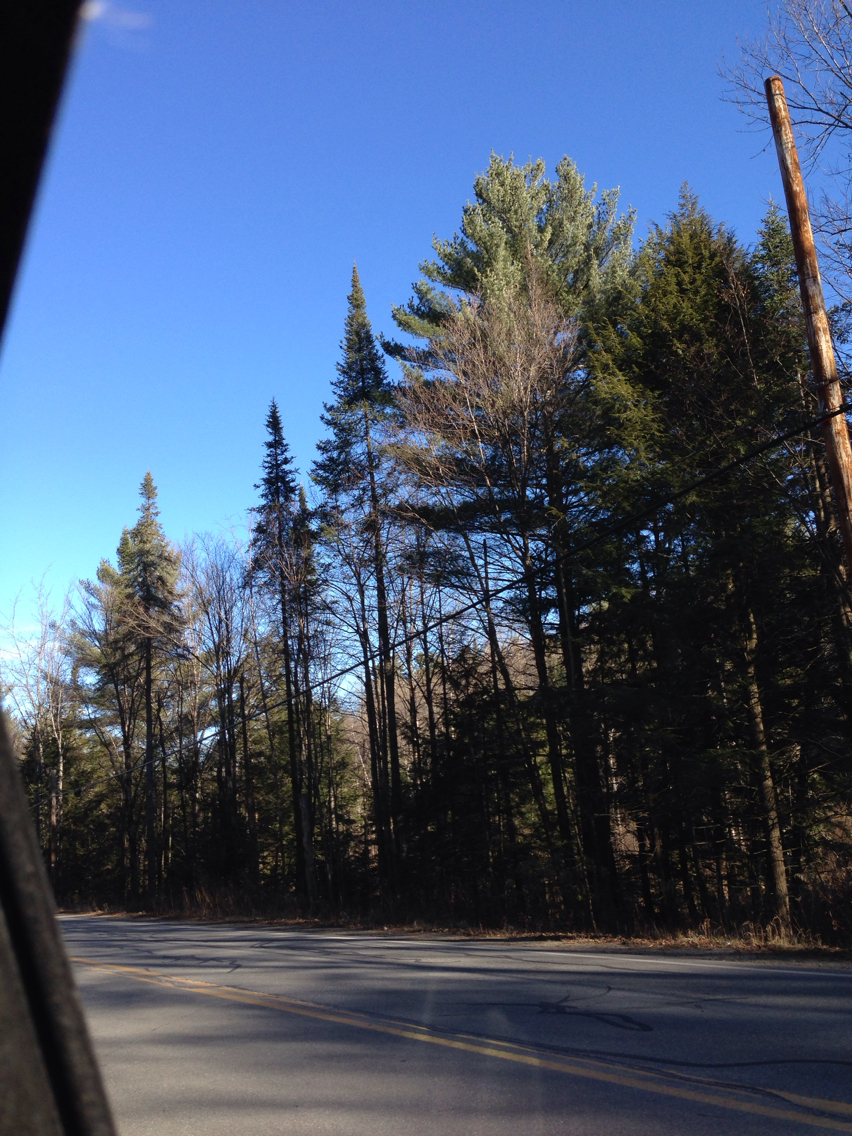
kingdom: Plantae
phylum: Tracheophyta
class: Pinopsida
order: Pinales
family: Pinaceae
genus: Abies
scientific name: Abies balsamea
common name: Balsam fir
